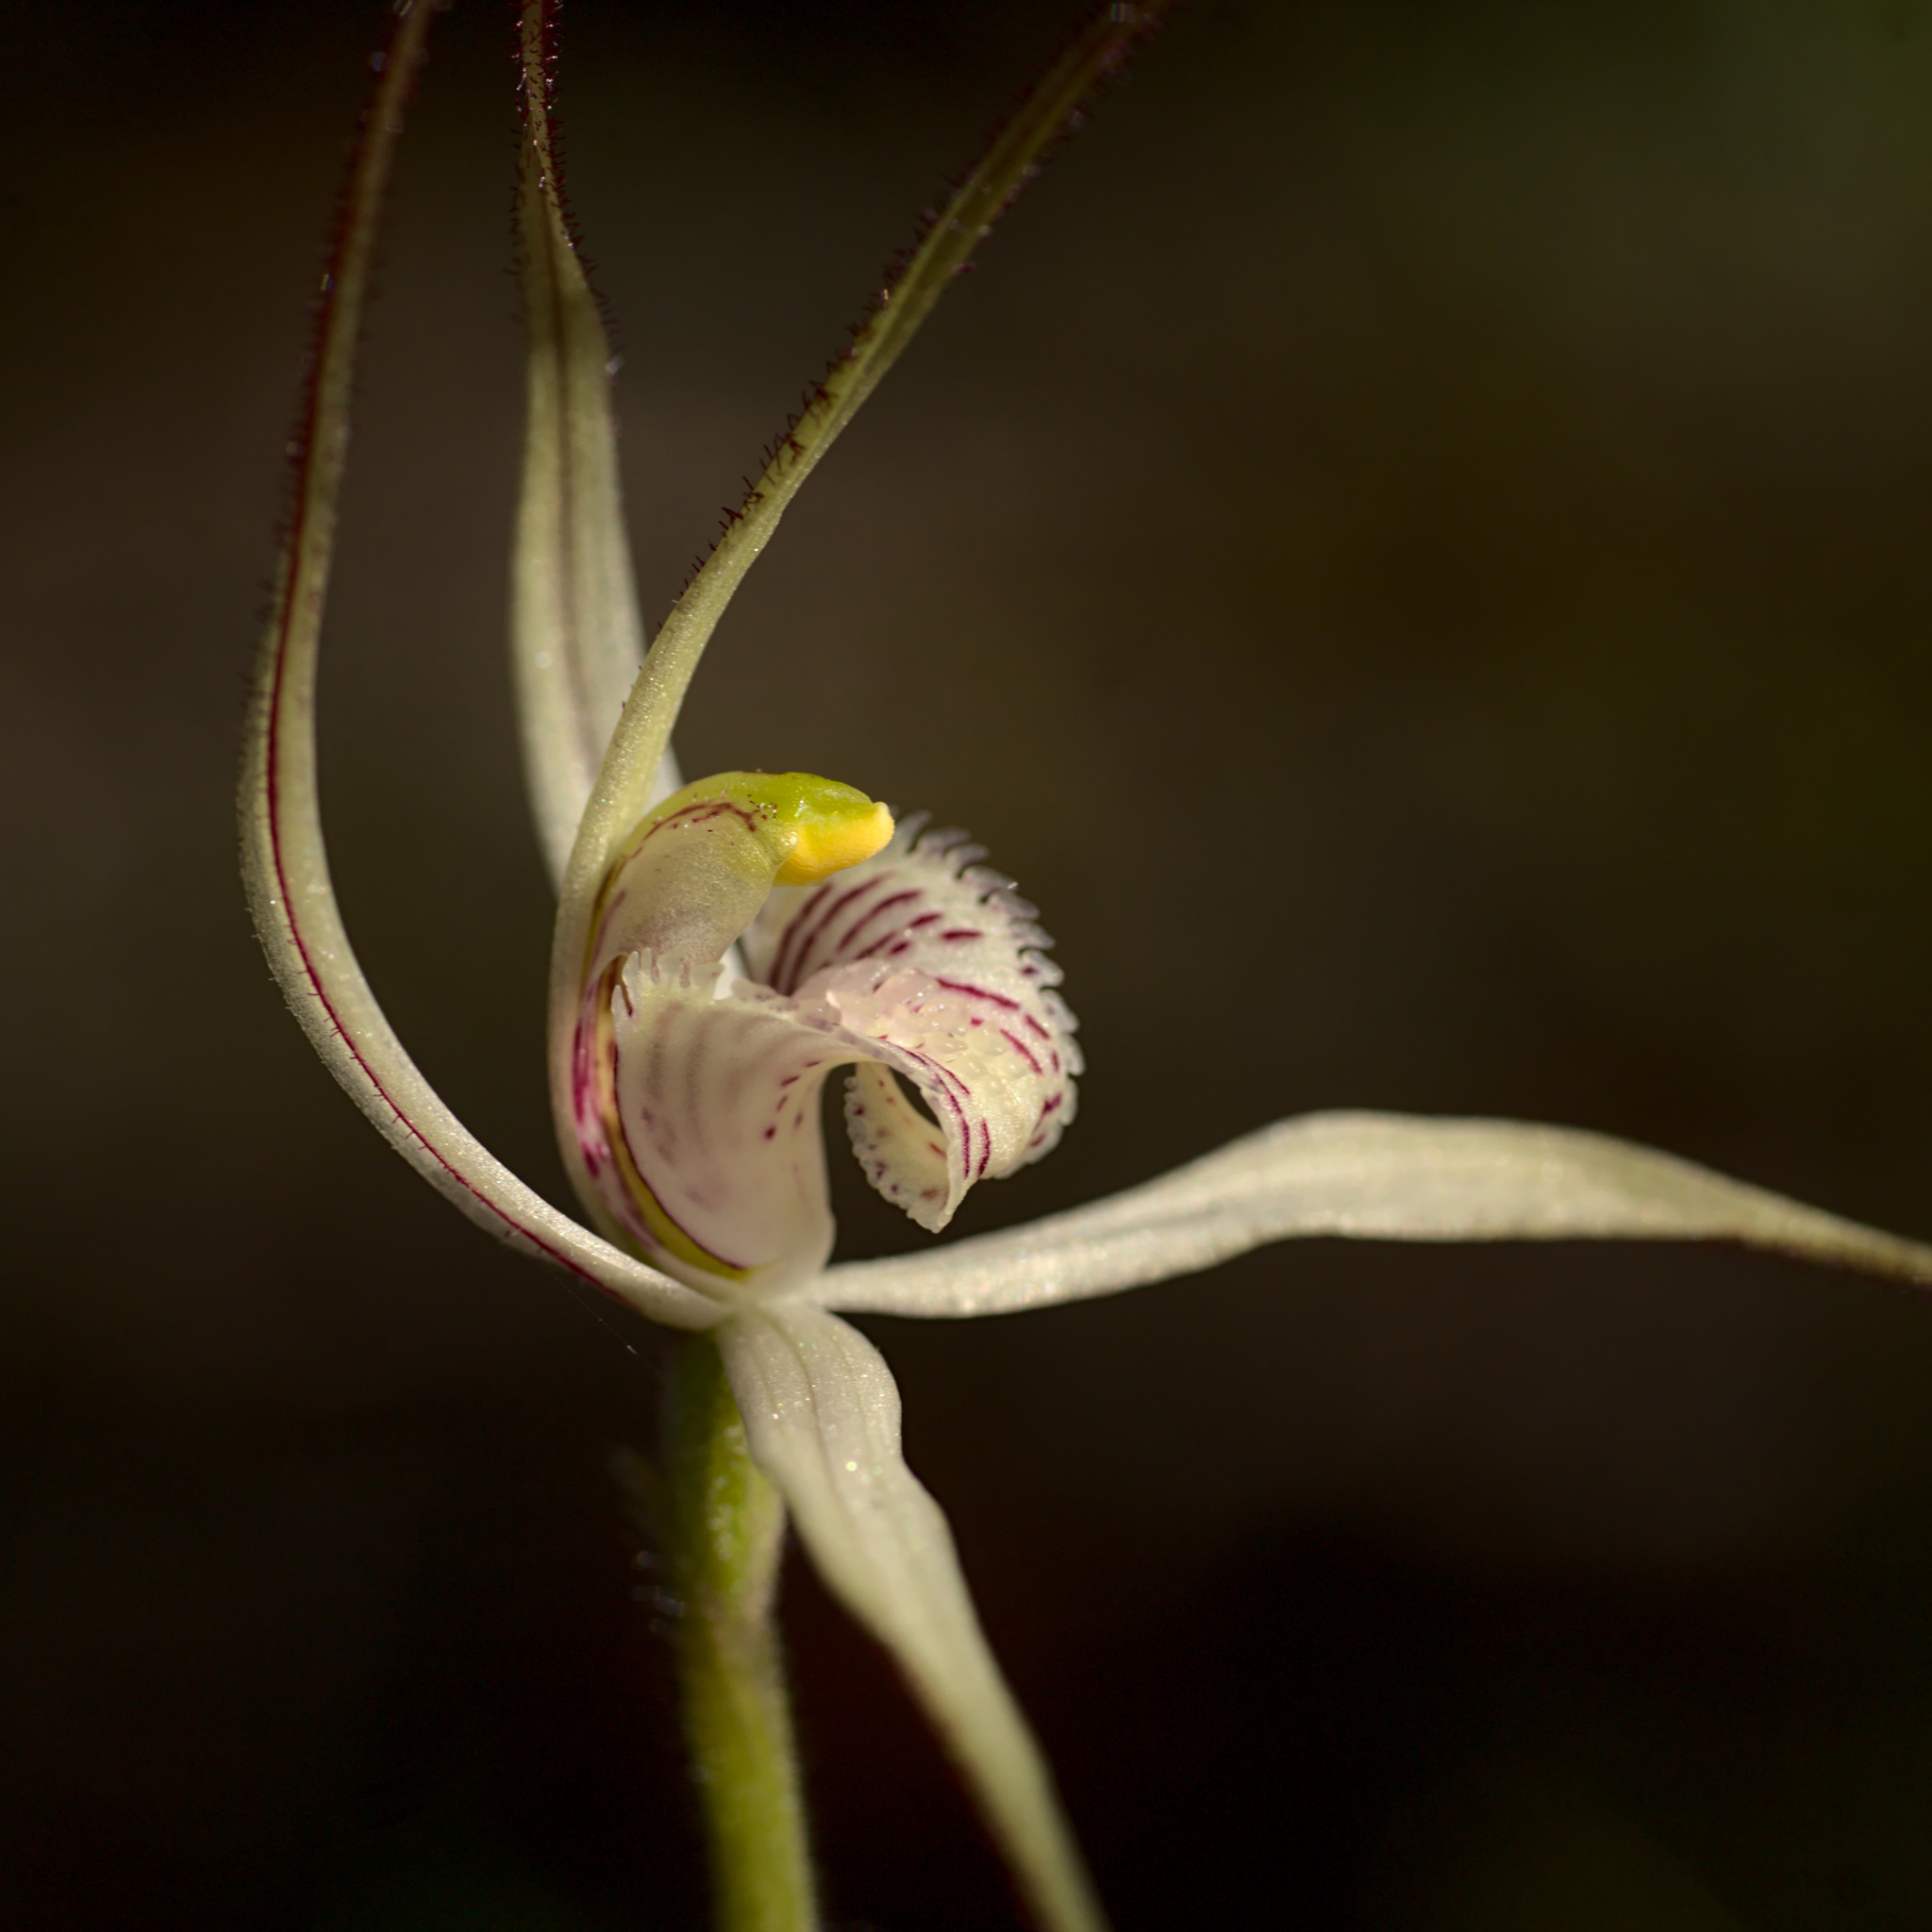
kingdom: Plantae
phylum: Tracheophyta
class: Liliopsida
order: Asparagales
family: Orchidaceae
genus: Caladenia
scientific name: Caladenia saxicola
